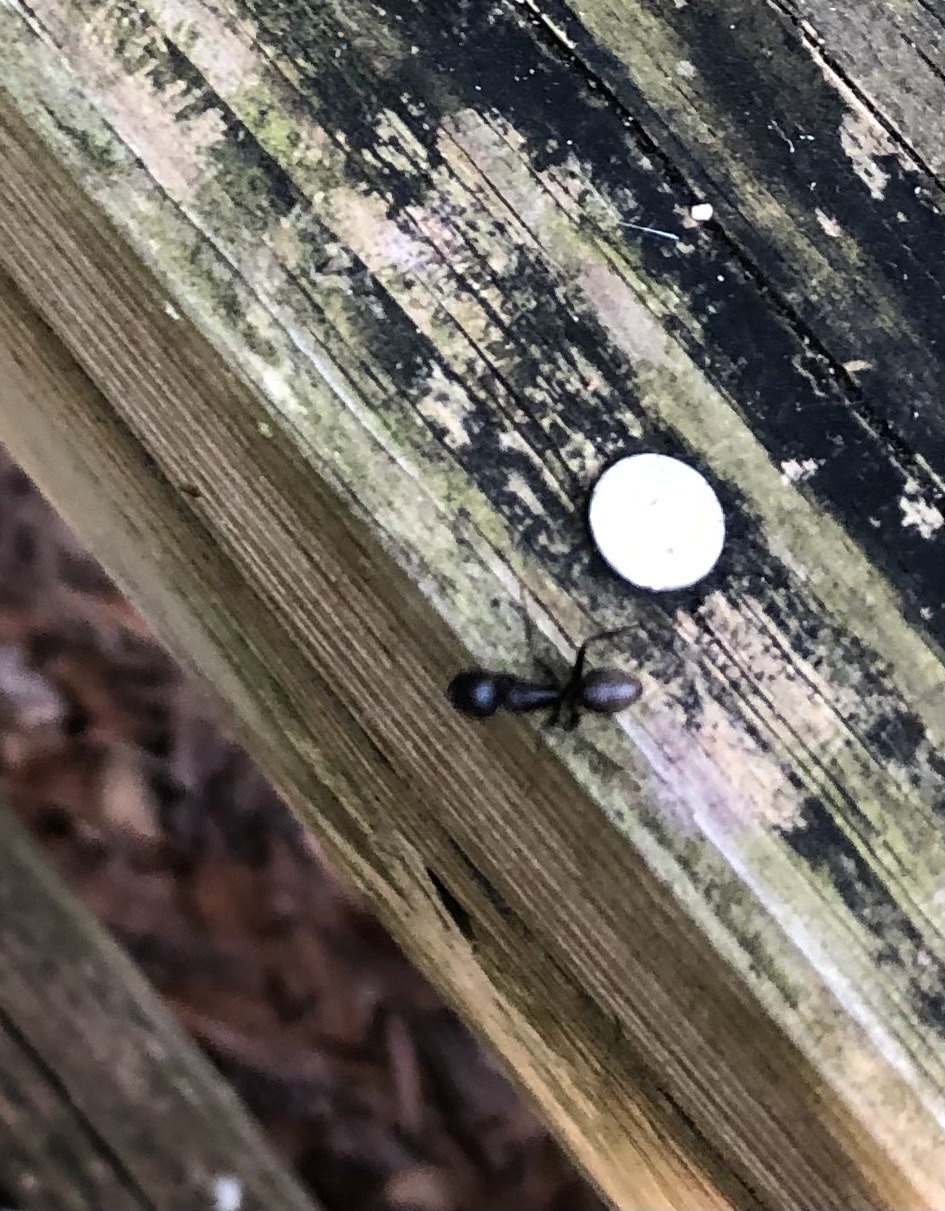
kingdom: Animalia
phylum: Arthropoda
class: Insecta
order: Hymenoptera
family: Formicidae
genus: Camponotus
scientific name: Camponotus pennsylvanicus
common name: Black carpenter ant
